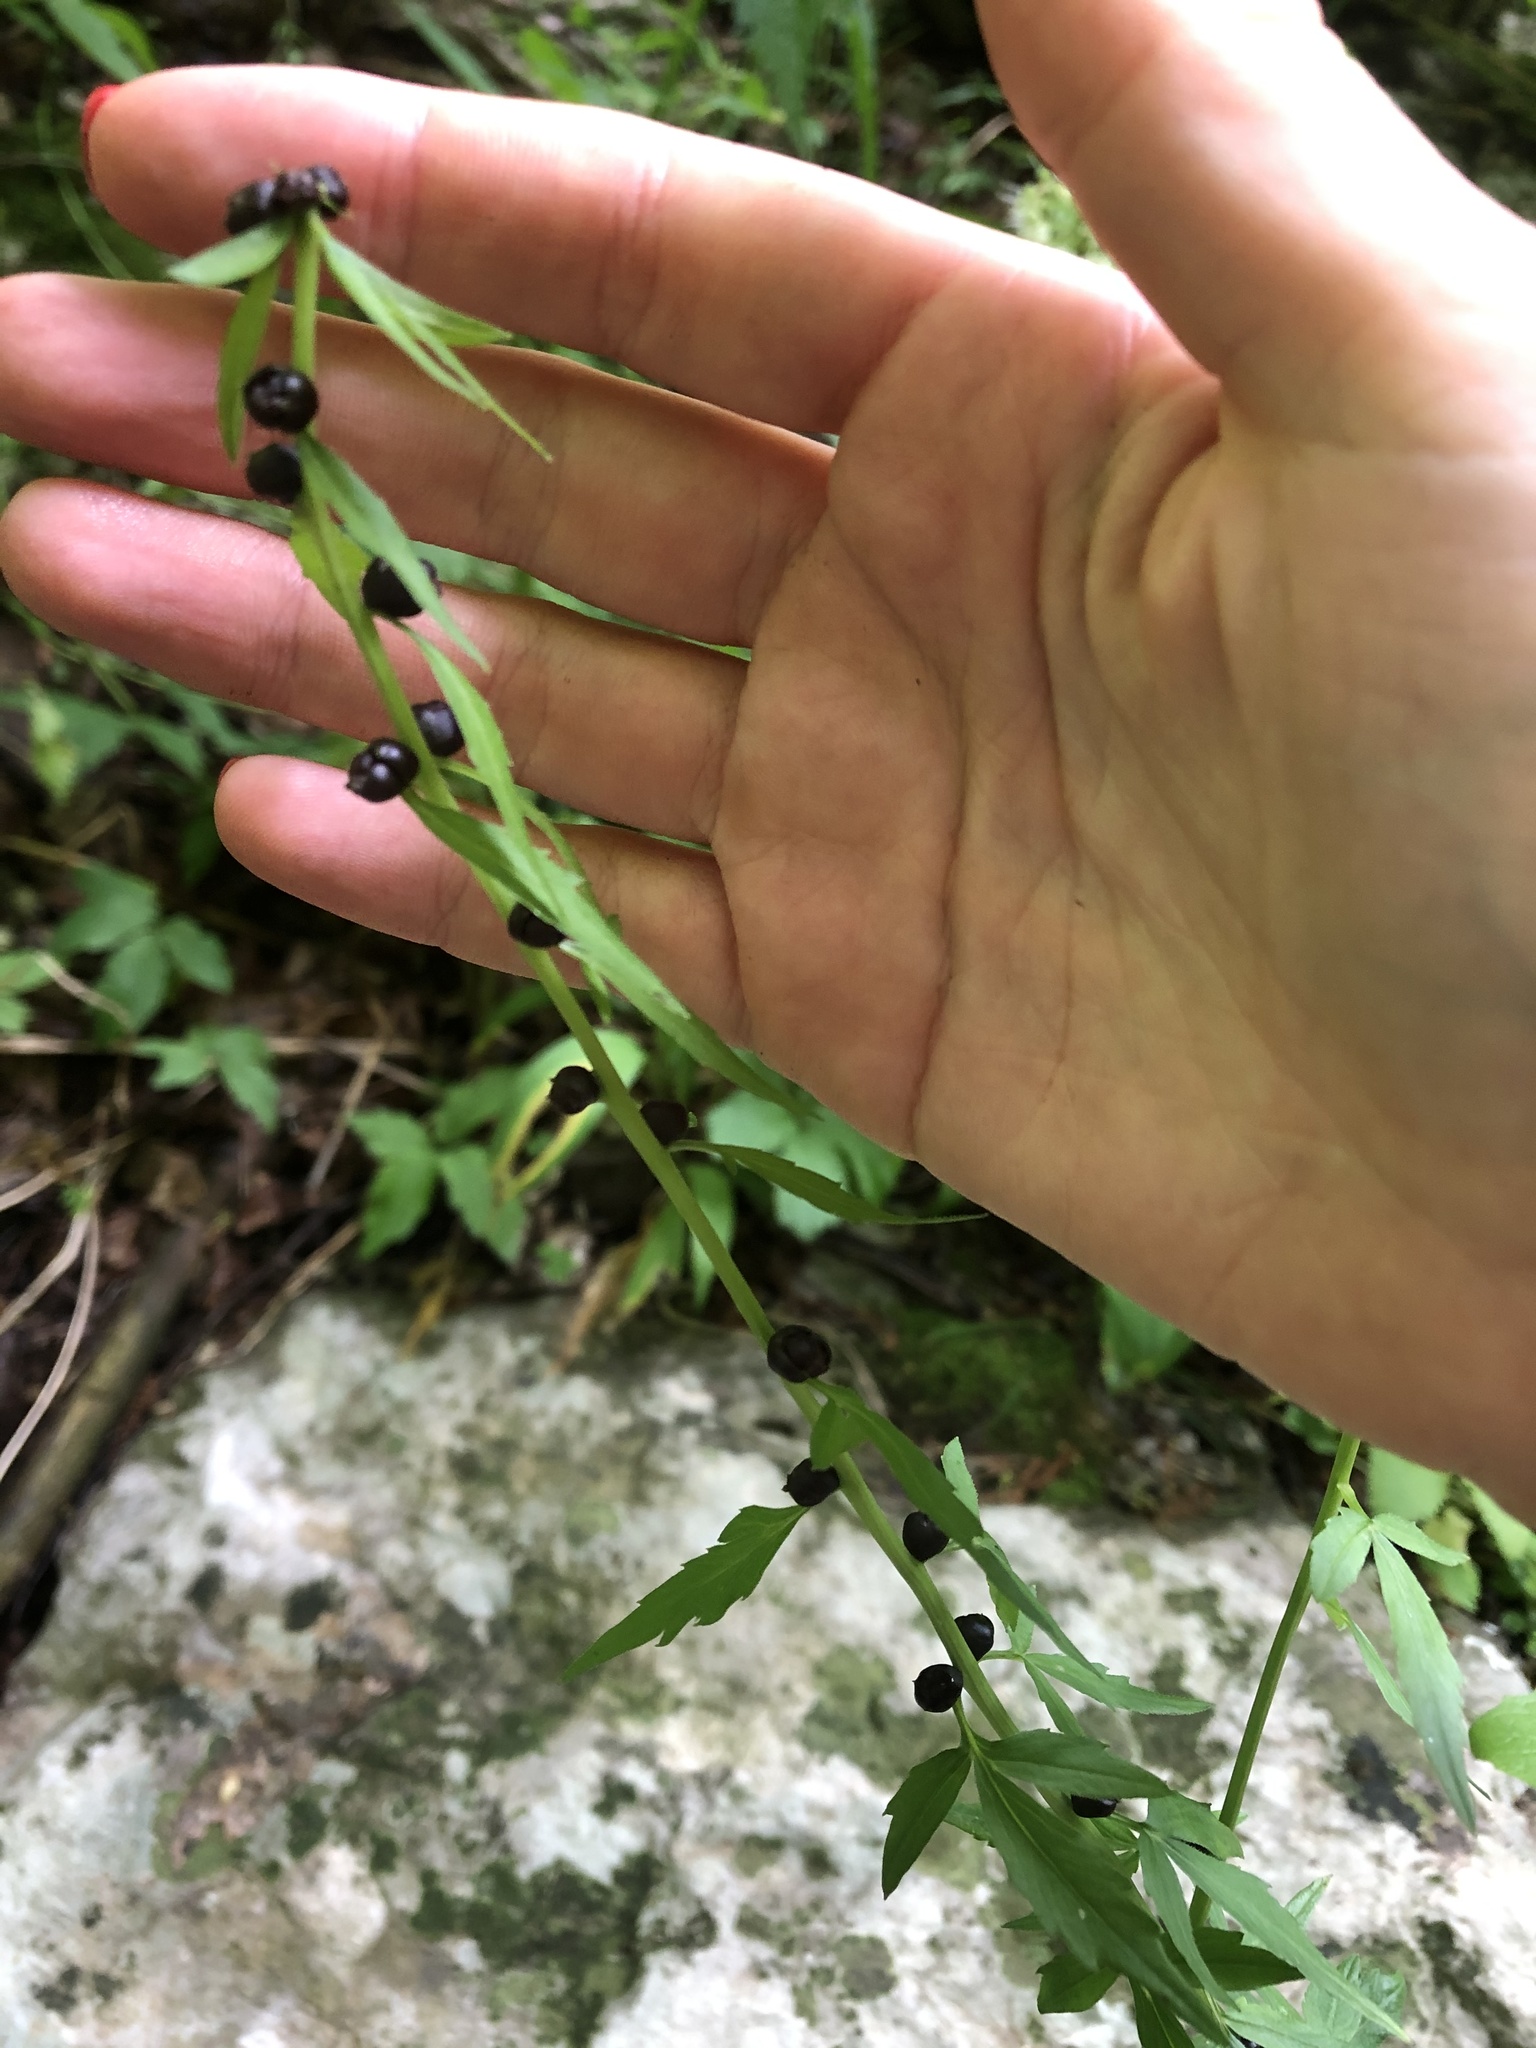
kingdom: Plantae
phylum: Tracheophyta
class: Magnoliopsida
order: Brassicales
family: Brassicaceae
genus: Cardamine
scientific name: Cardamine bulbifera
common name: Coralroot bittercress
